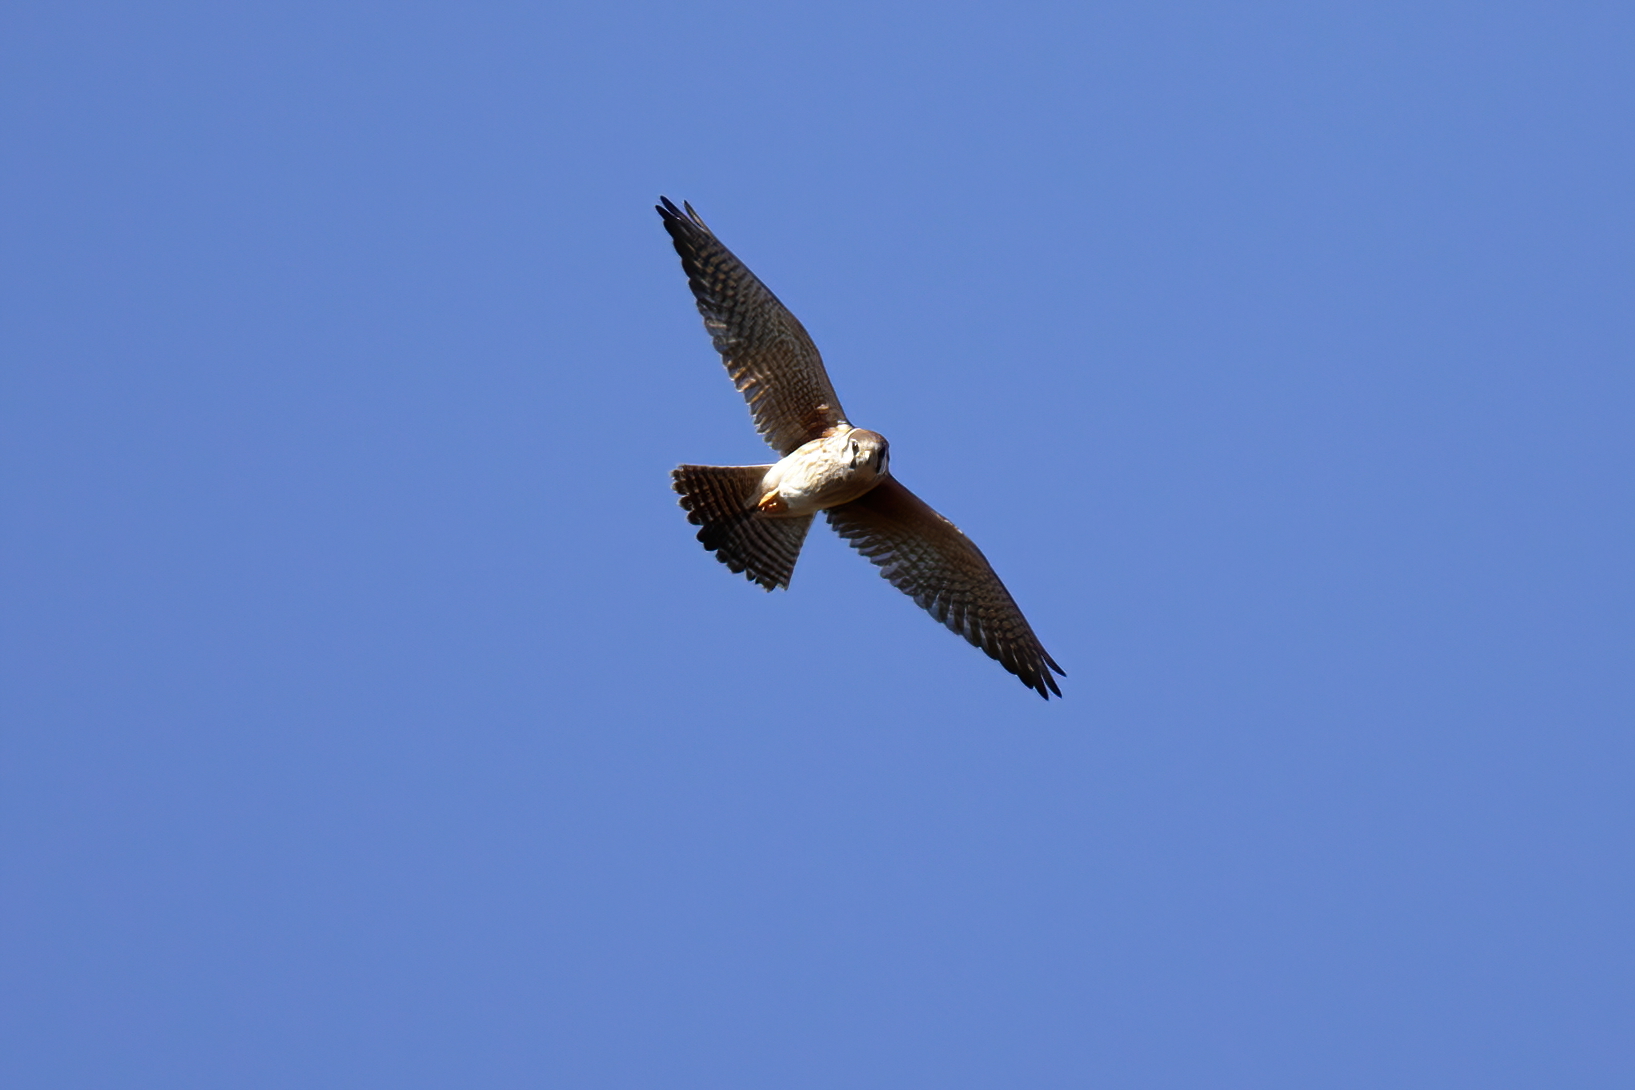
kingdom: Animalia
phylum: Chordata
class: Aves
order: Falconiformes
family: Falconidae
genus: Falco
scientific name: Falco sparverius
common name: American kestrel
